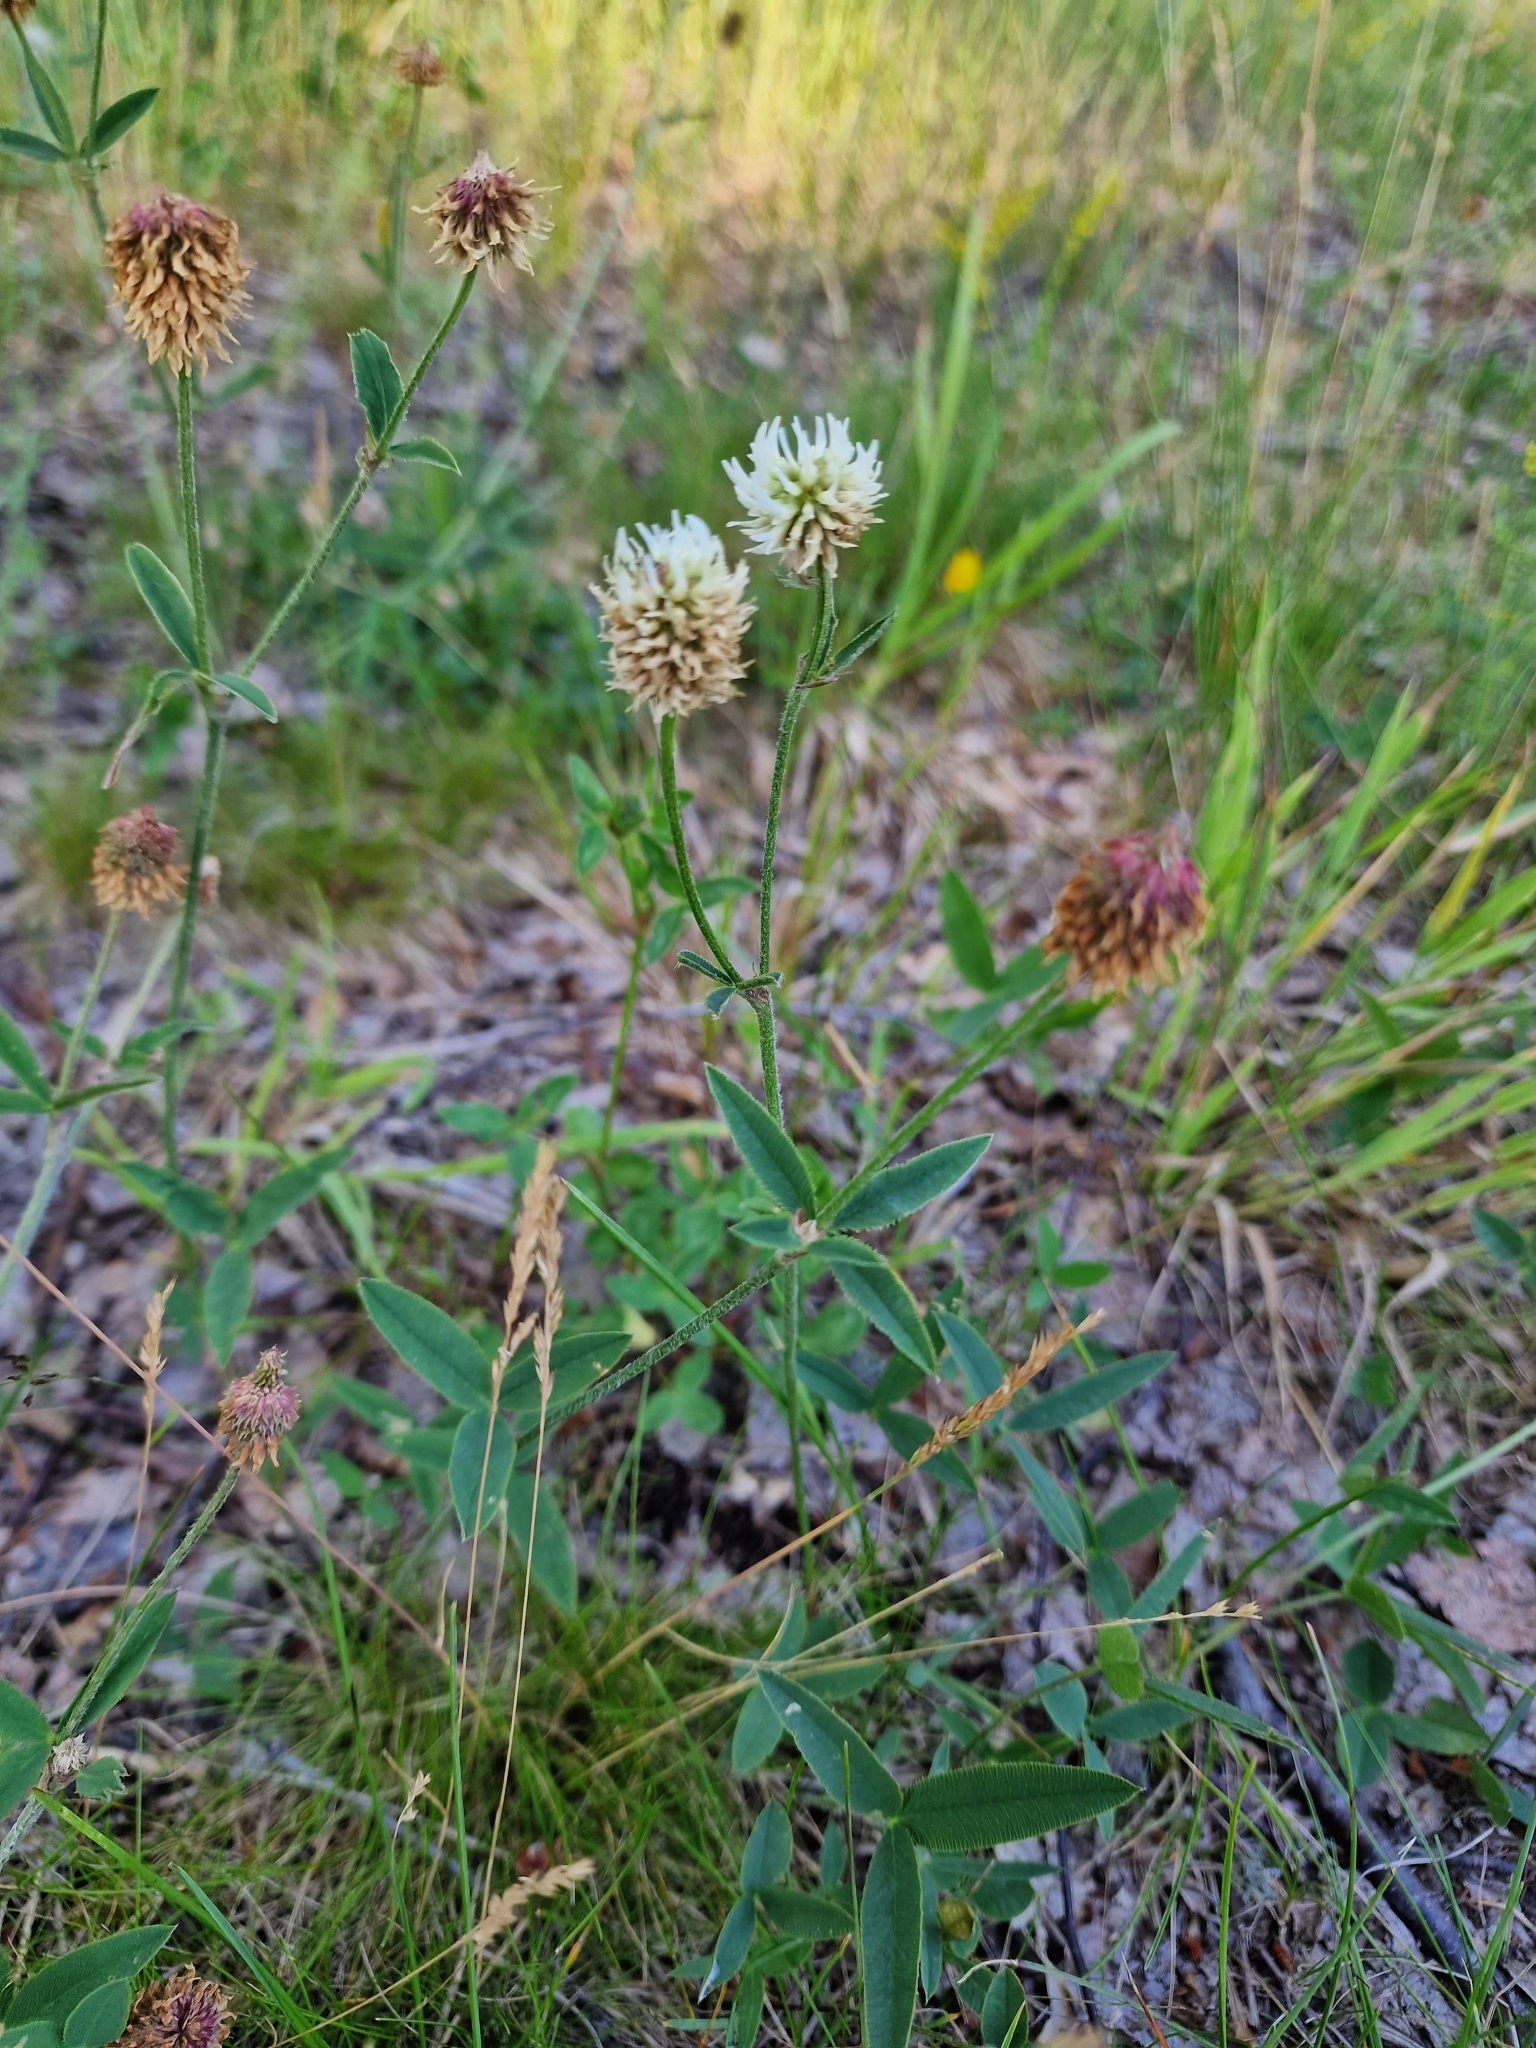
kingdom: Plantae
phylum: Tracheophyta
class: Magnoliopsida
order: Fabales
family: Fabaceae
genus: Trifolium
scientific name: Trifolium montanum
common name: Mountain clover
